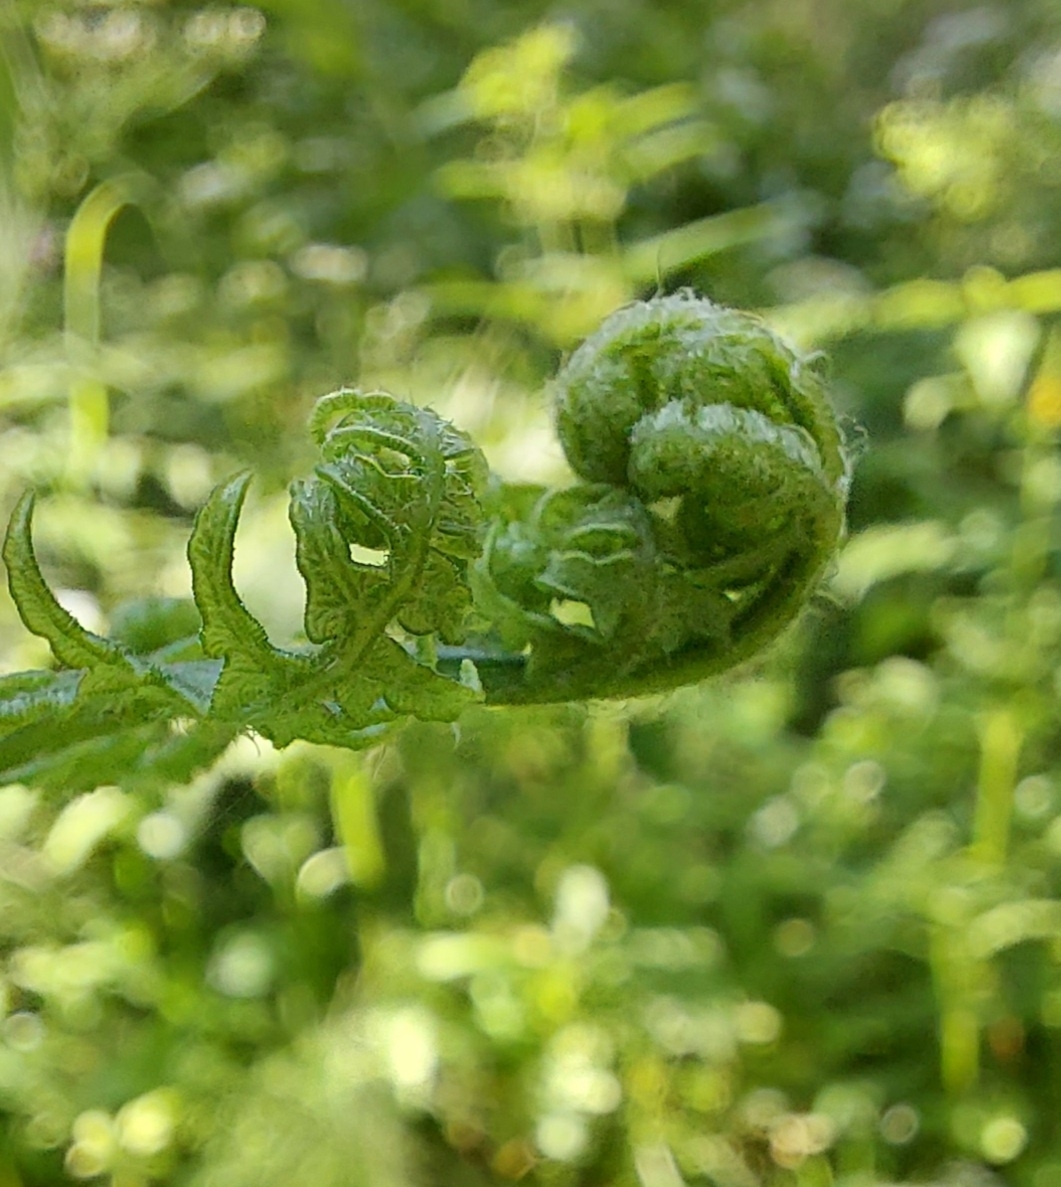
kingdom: Plantae
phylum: Tracheophyta
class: Polypodiopsida
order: Polypodiales
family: Dennstaedtiaceae
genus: Pteridium
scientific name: Pteridium aquilinum
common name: Bracken
